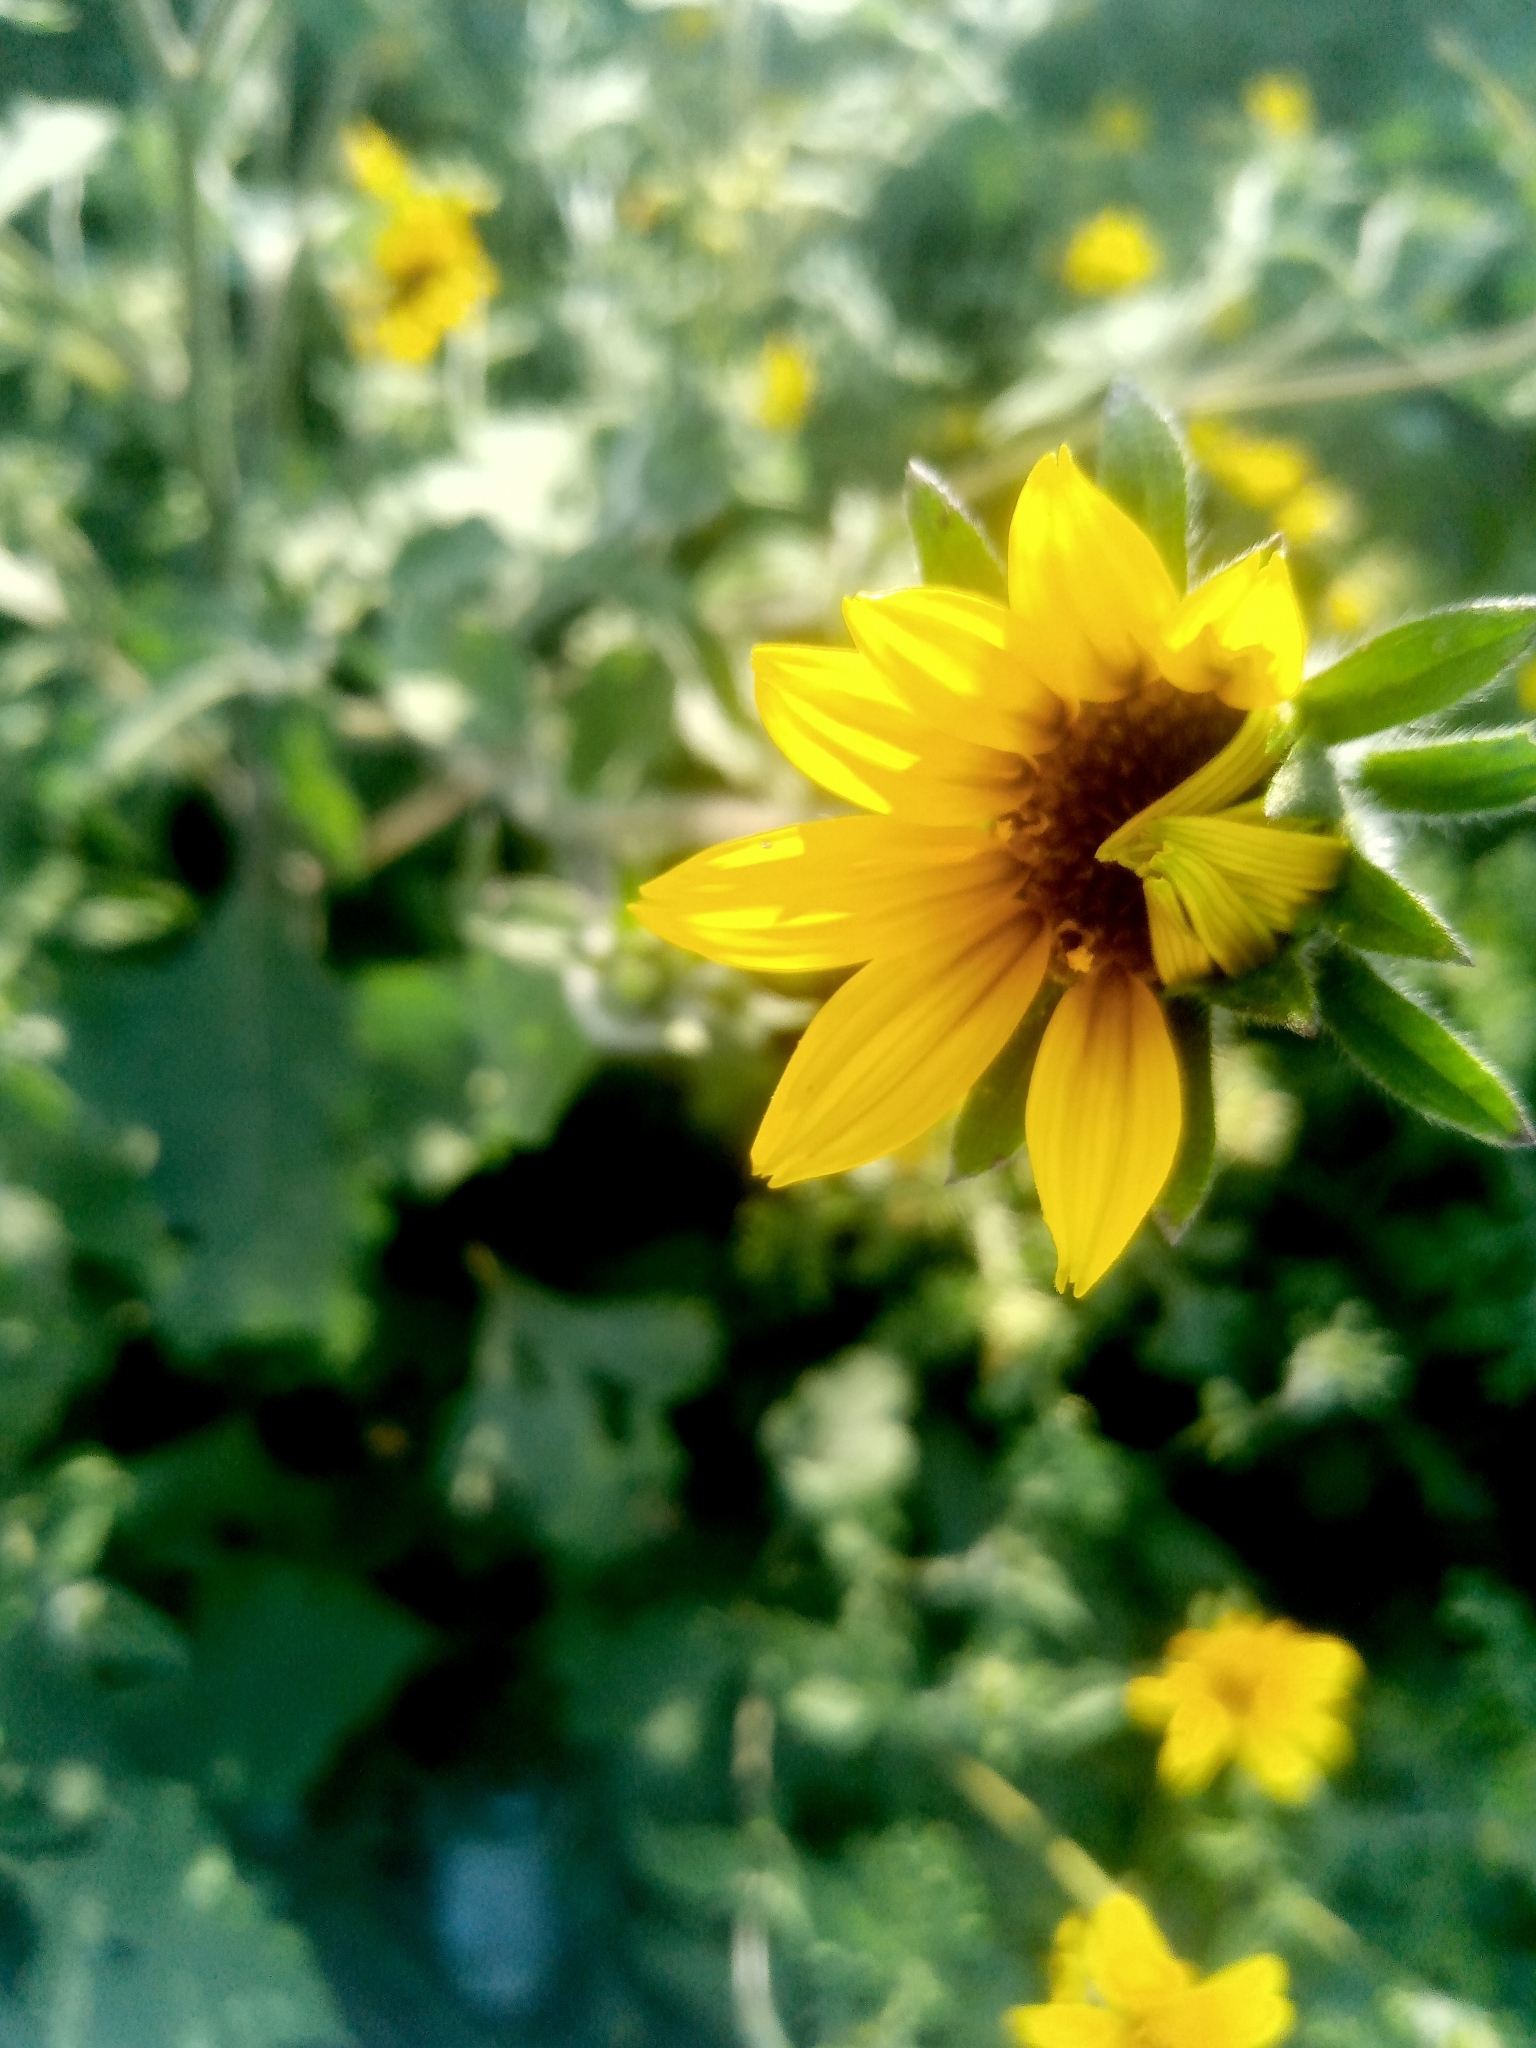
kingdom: Plantae
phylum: Tracheophyta
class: Magnoliopsida
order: Asterales
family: Asteraceae
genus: Tithonia
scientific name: Tithonia tubaeformis
